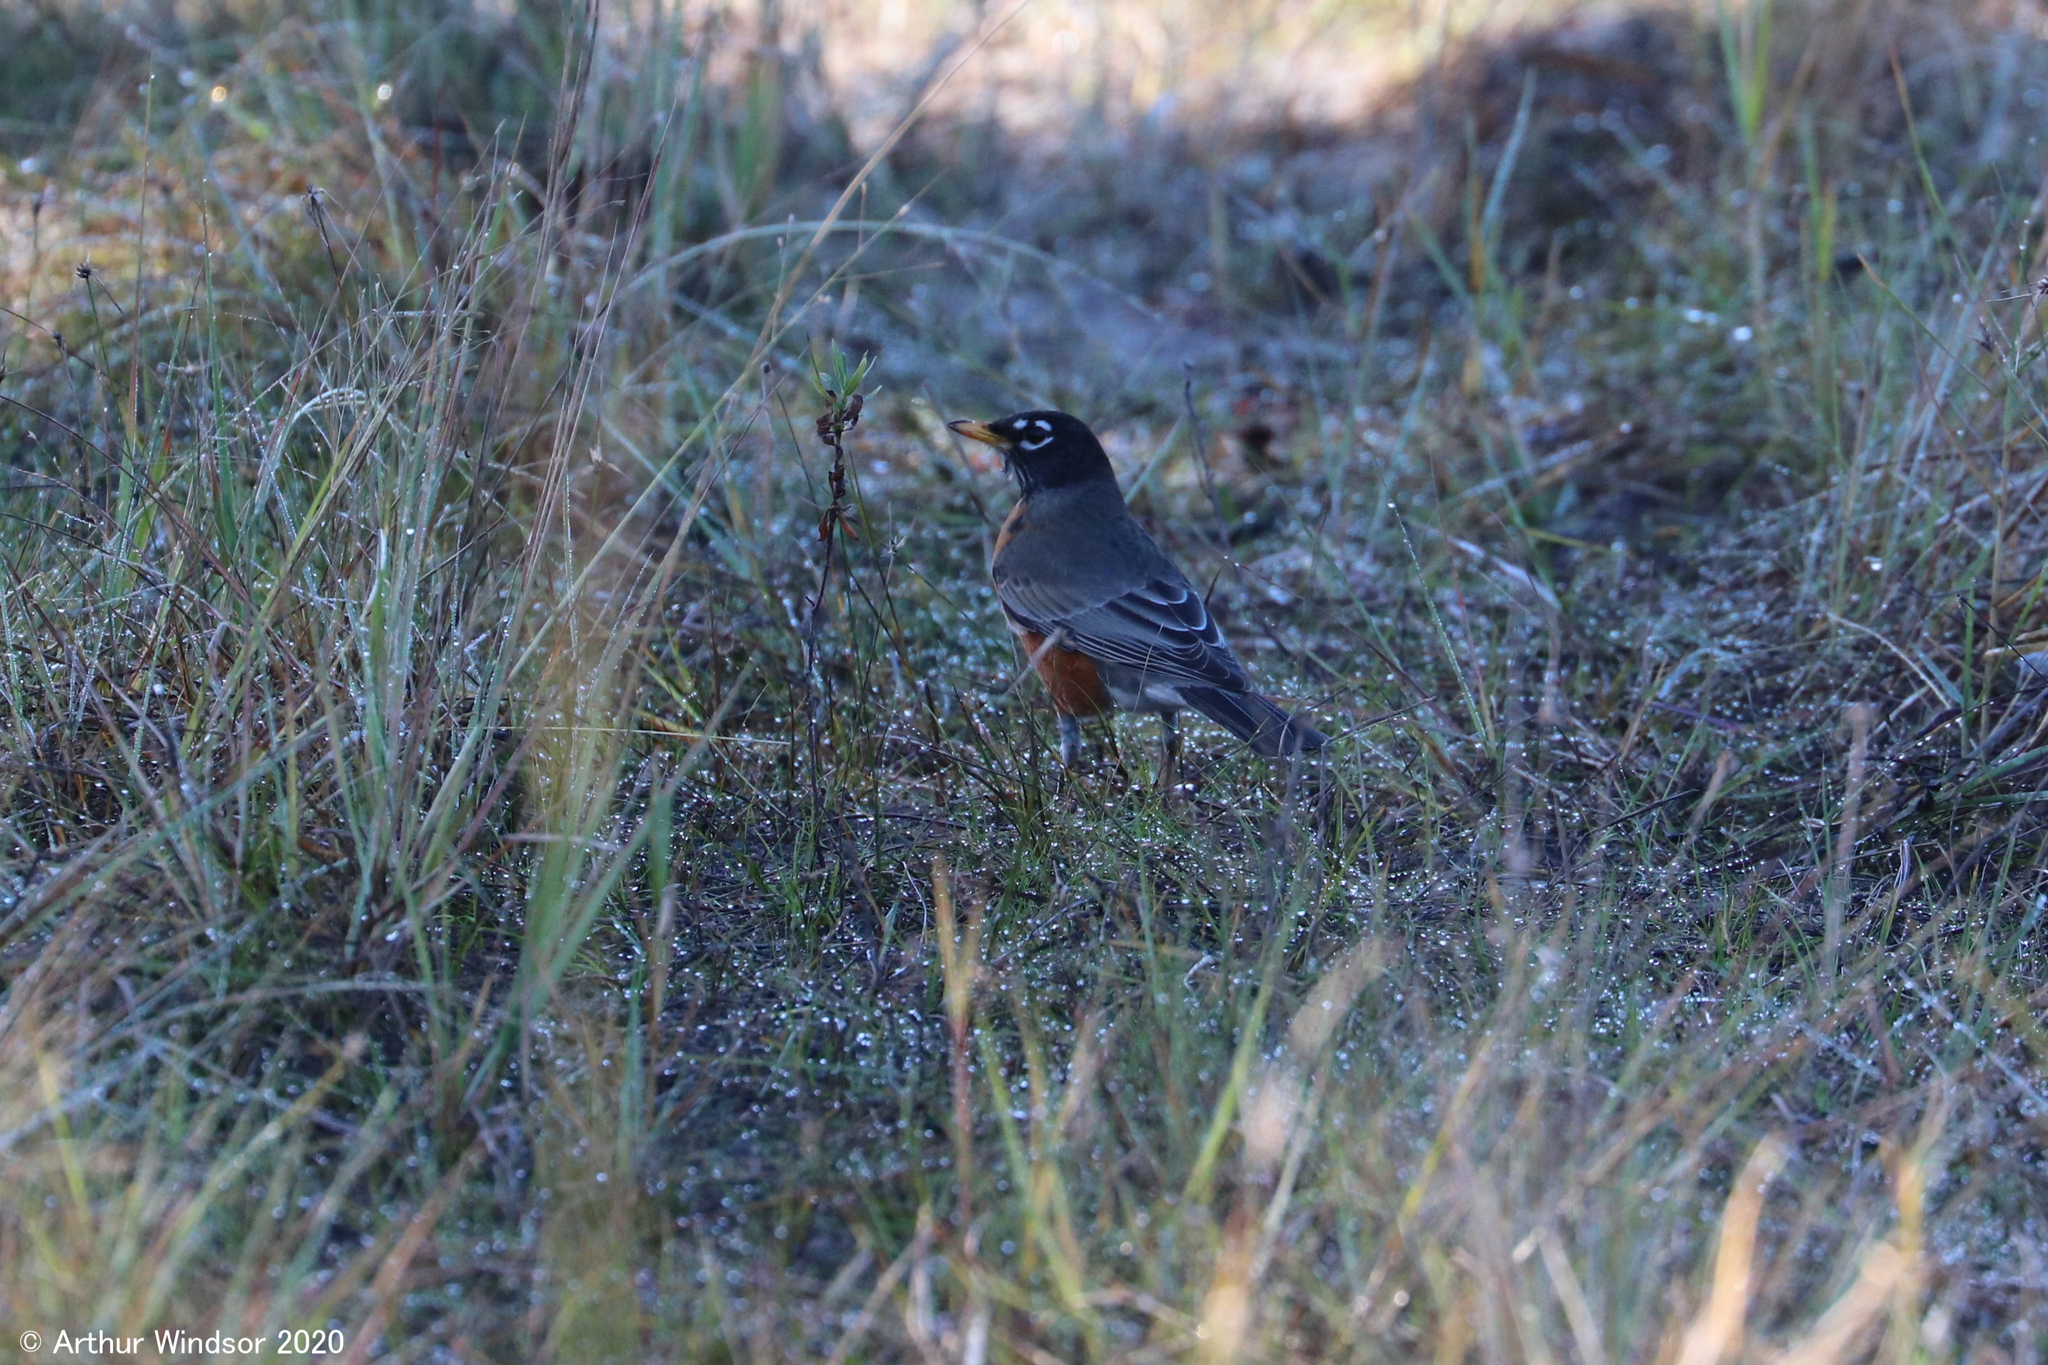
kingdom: Animalia
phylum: Chordata
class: Aves
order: Passeriformes
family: Turdidae
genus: Turdus
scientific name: Turdus migratorius
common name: American robin
